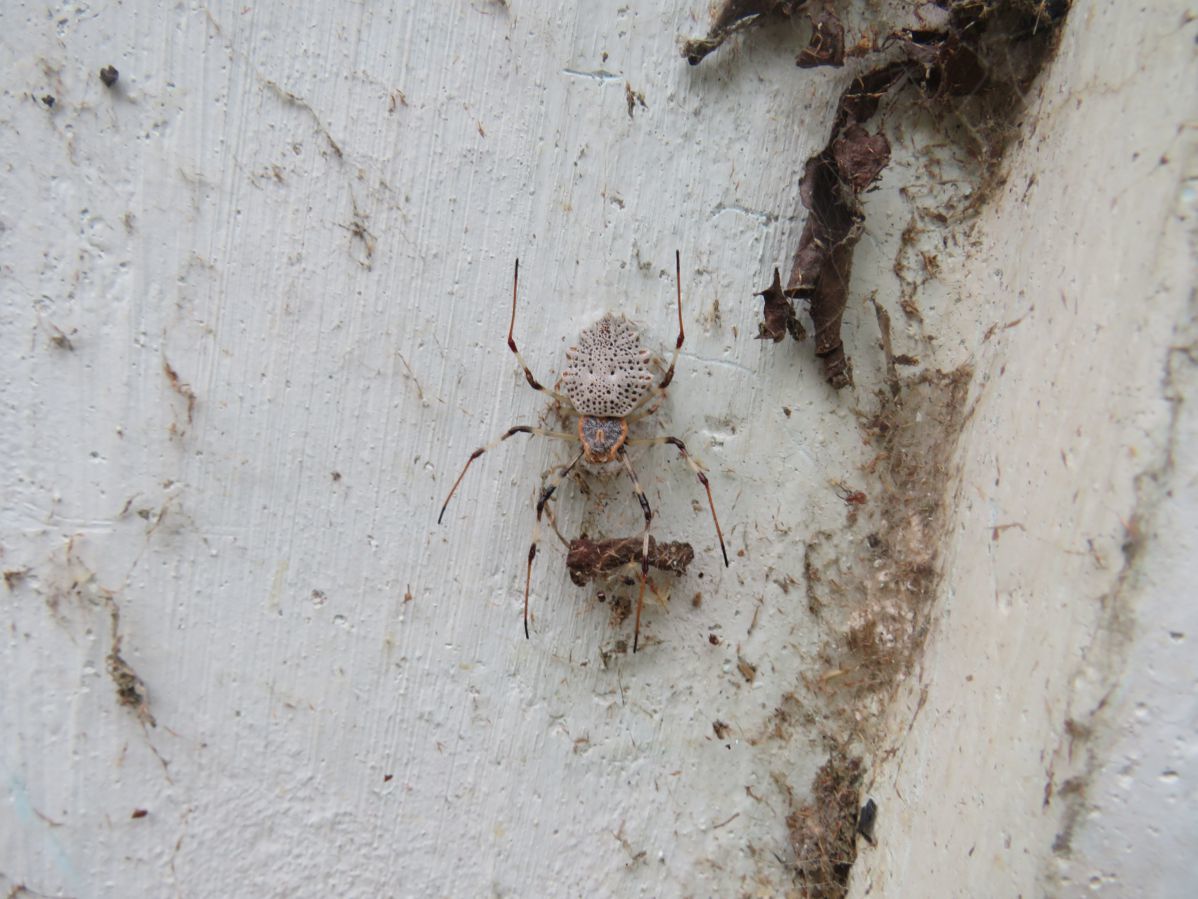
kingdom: Animalia
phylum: Arthropoda
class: Arachnida
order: Araneae
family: Araneidae
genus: Herennia
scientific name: Herennia multipuncta
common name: Spotted coin spider
